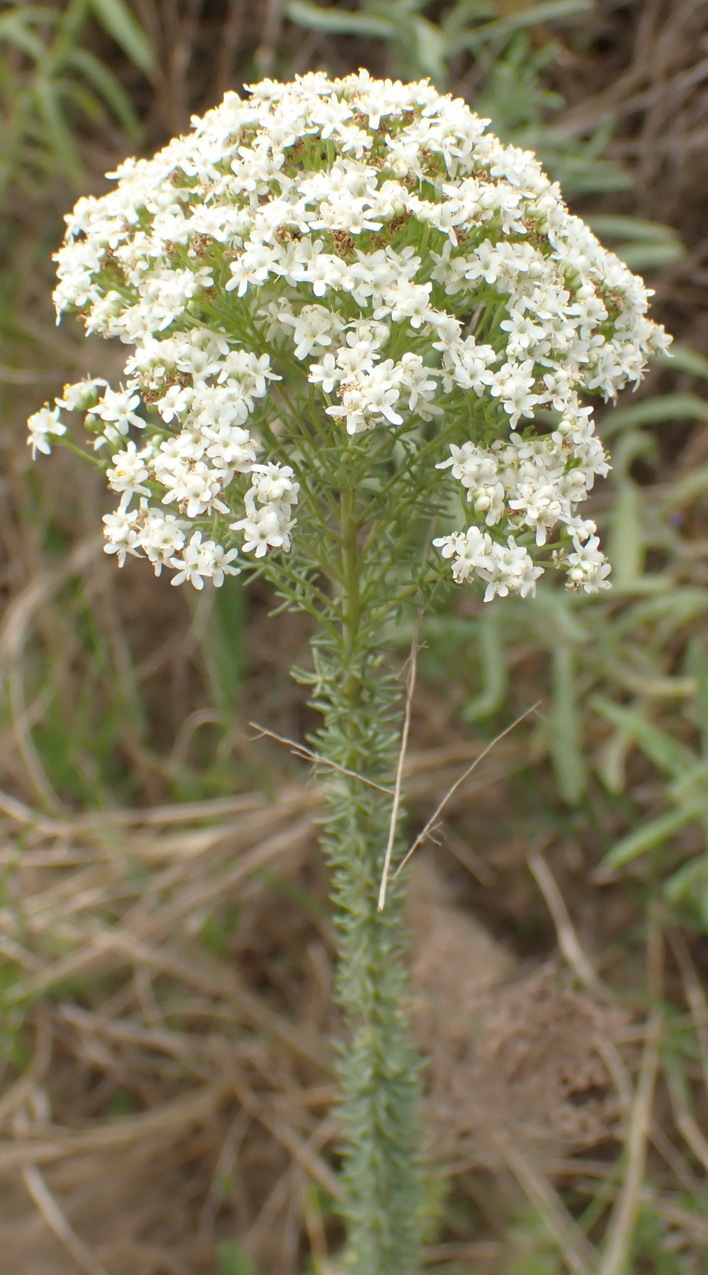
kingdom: Plantae
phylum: Tracheophyta
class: Magnoliopsida
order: Lamiales
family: Scrophulariaceae
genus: Selago
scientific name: Selago corymbosa
